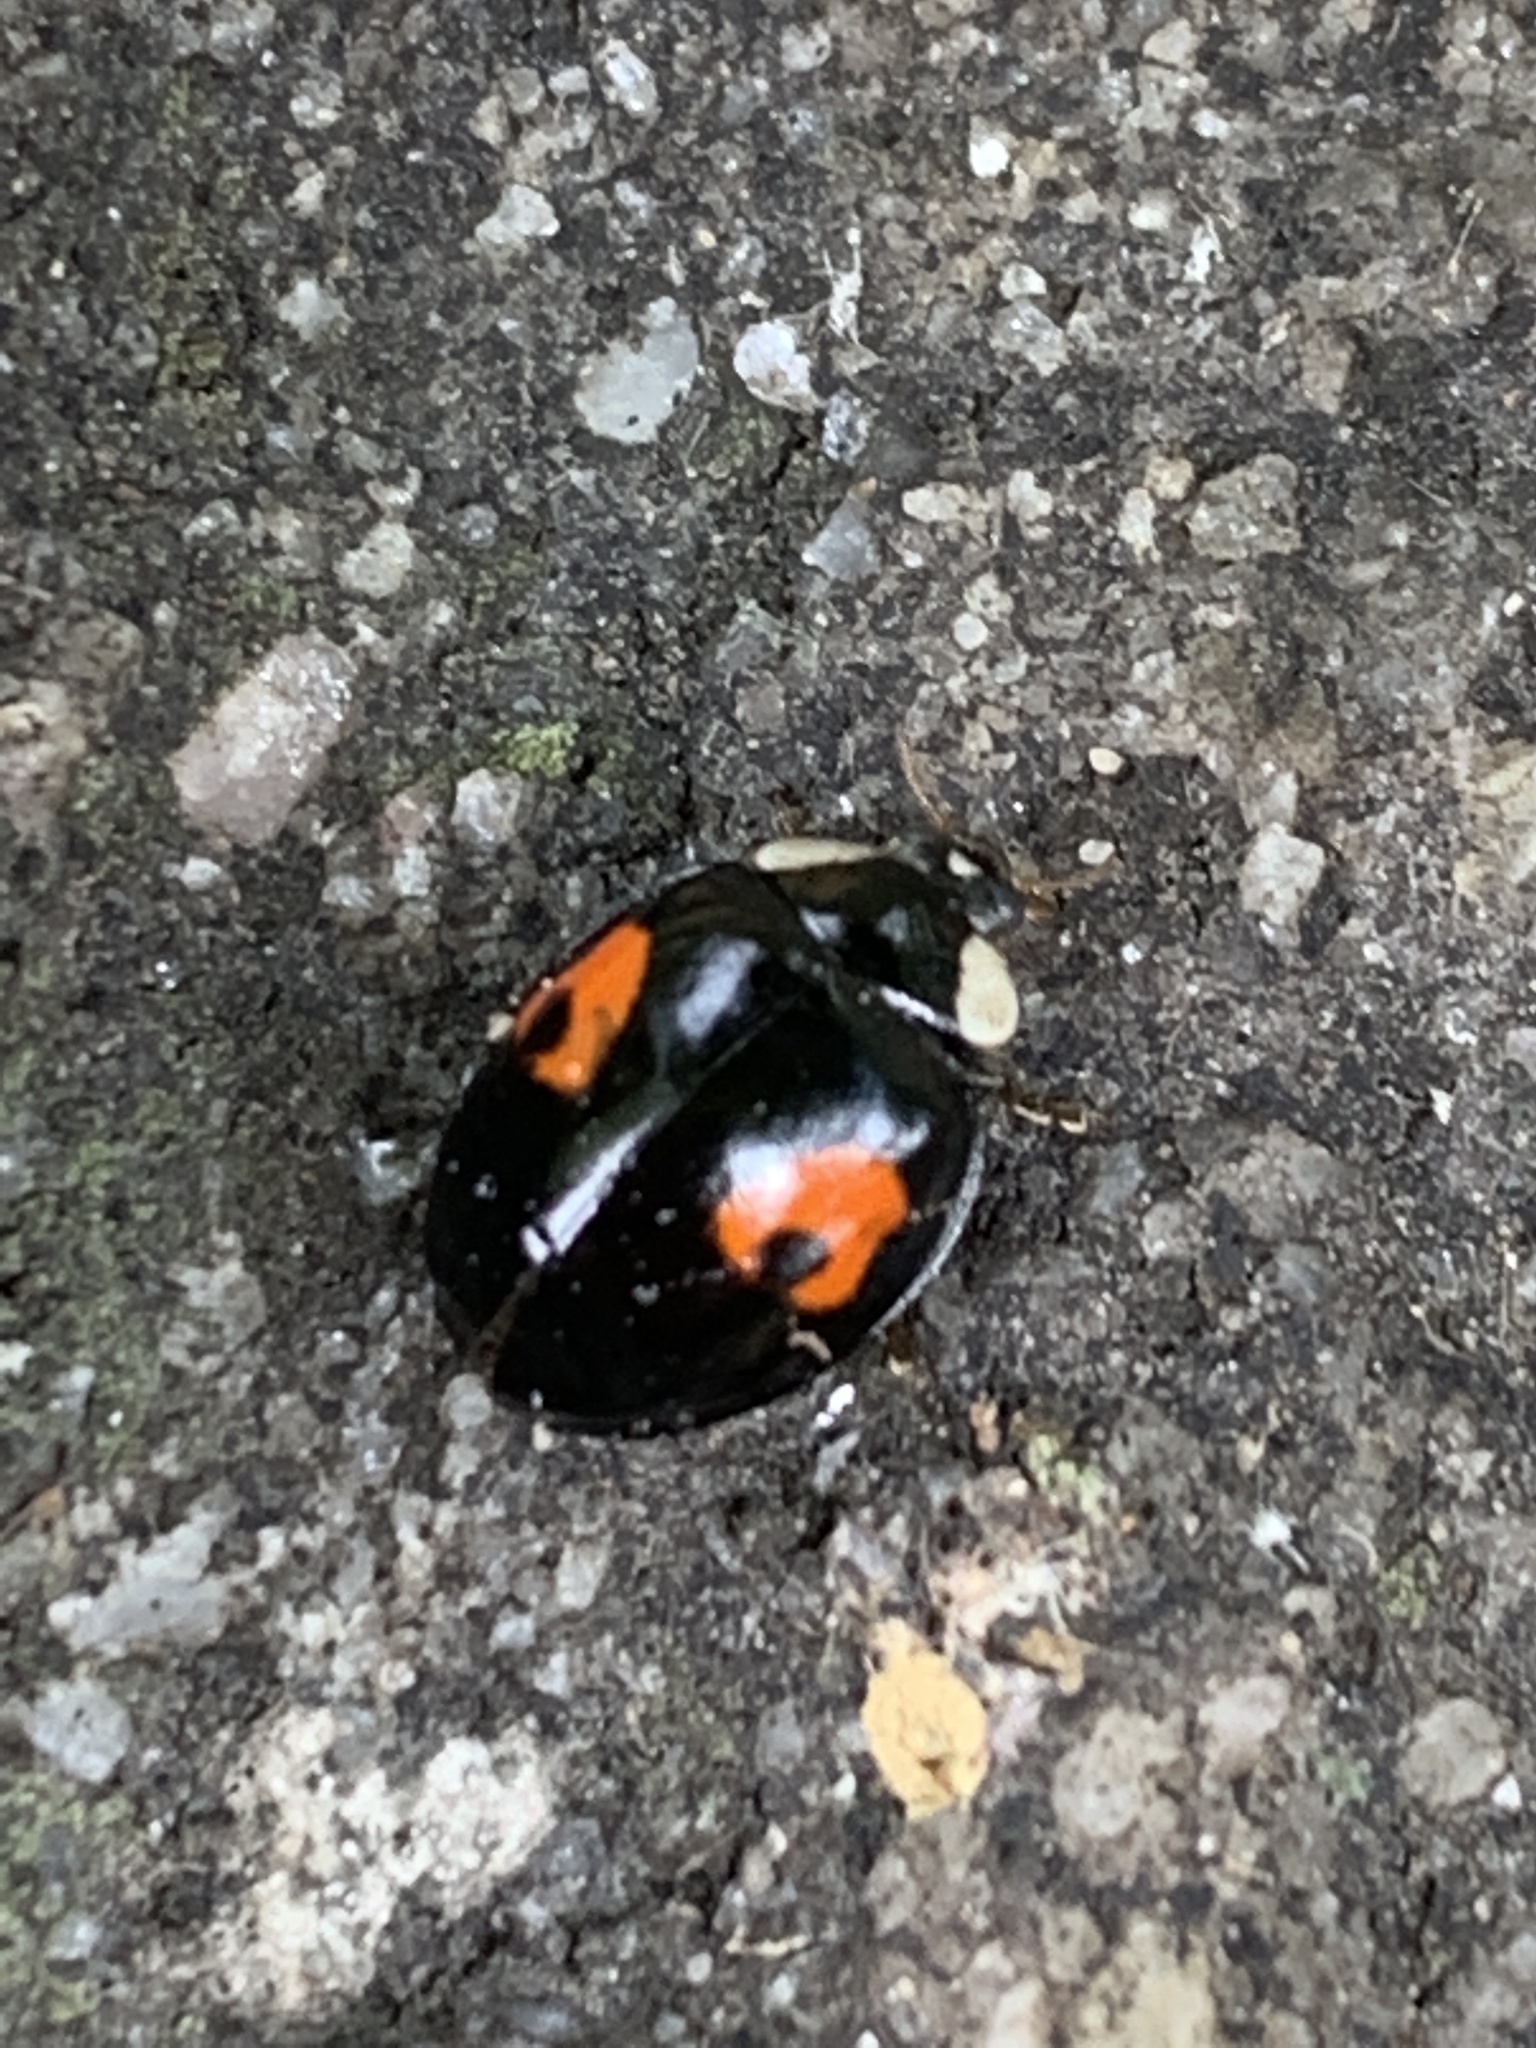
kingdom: Animalia
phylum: Arthropoda
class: Insecta
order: Coleoptera
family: Coccinellidae
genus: Harmonia
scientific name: Harmonia axyridis
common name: Harlequin ladybird
